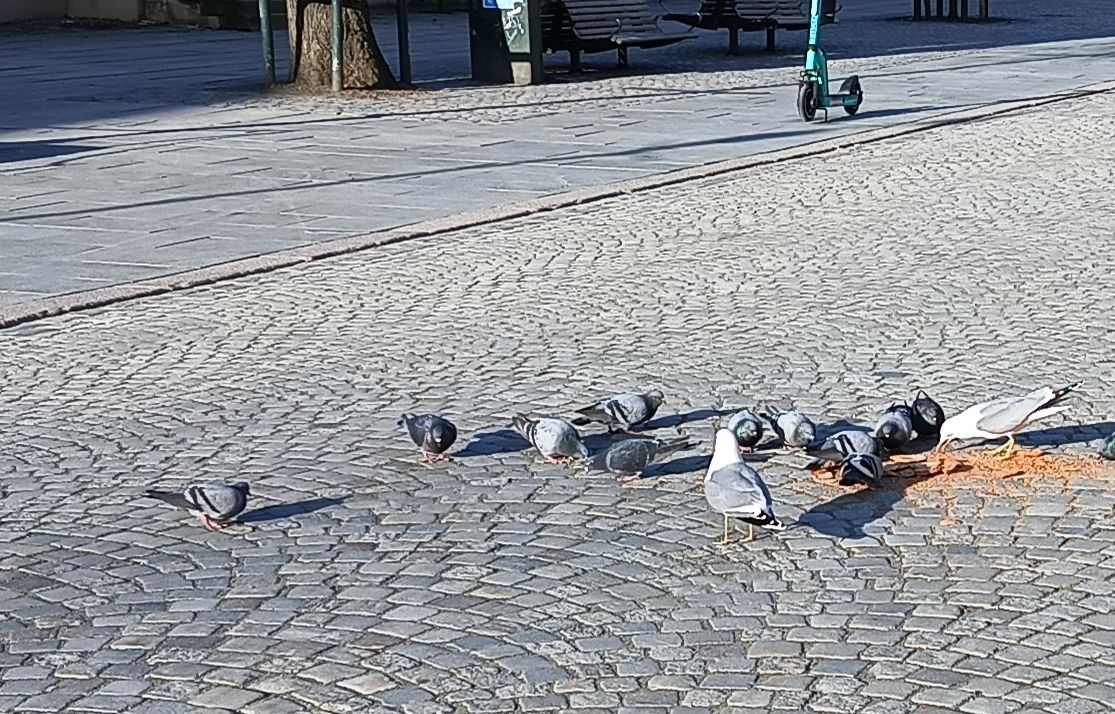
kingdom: Animalia
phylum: Chordata
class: Aves
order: Columbiformes
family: Columbidae
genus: Columba
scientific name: Columba livia
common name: Rock pigeon
